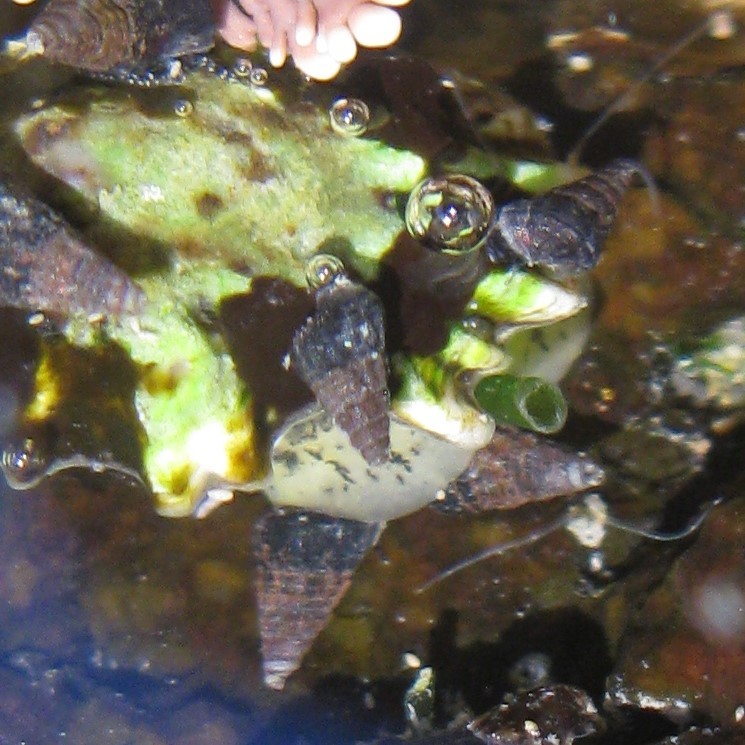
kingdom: Animalia
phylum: Mollusca
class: Gastropoda
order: Siphonariida
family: Siphonariidae
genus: Siphonaria
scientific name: Siphonaria australis
